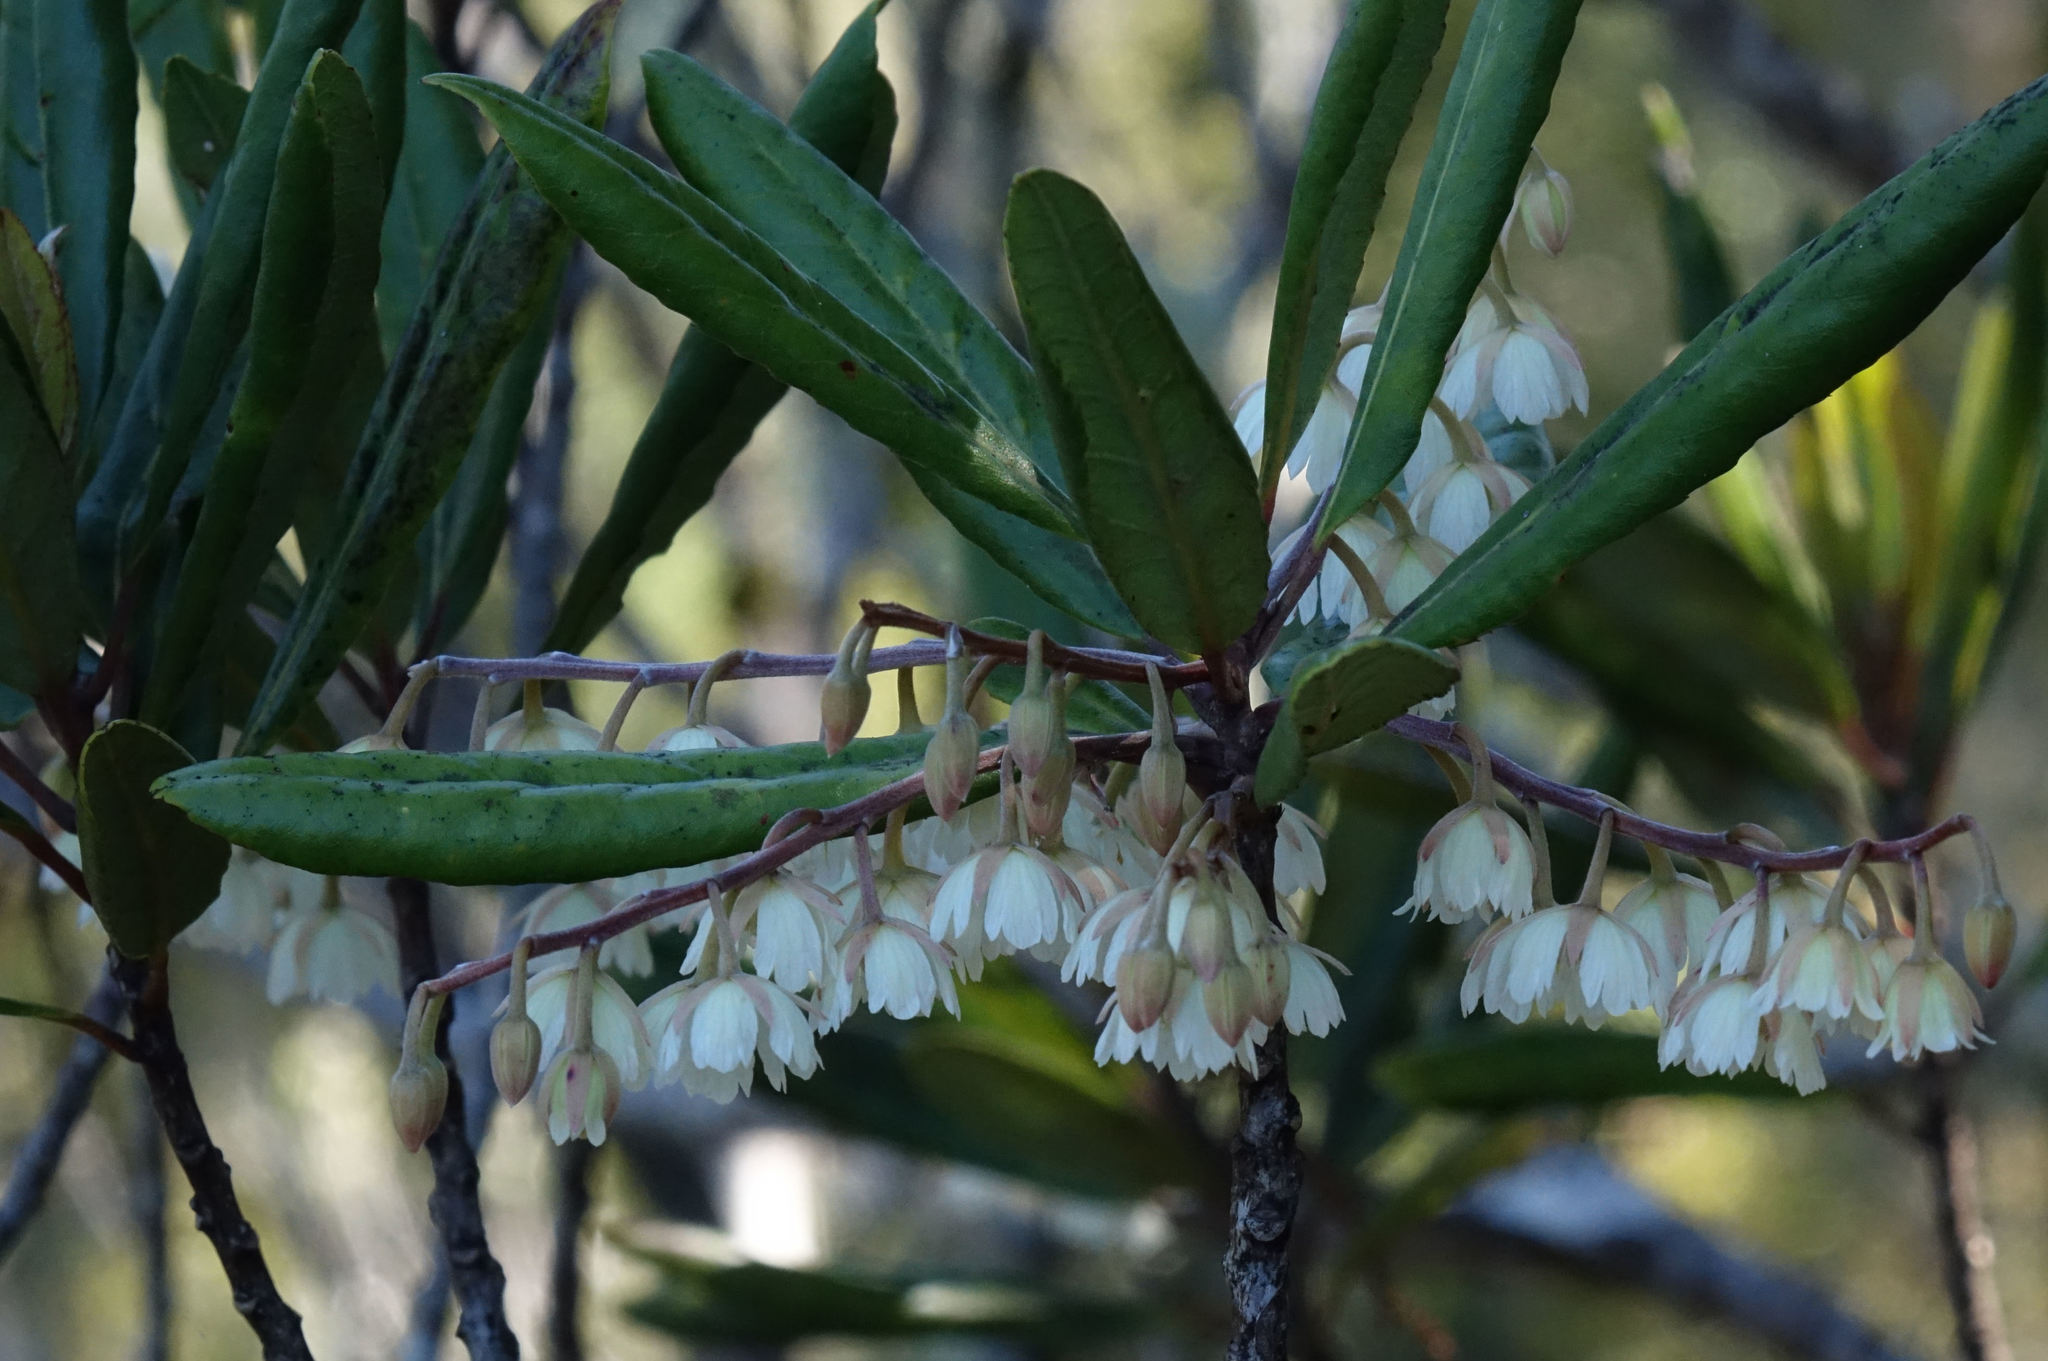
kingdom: Plantae
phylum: Tracheophyta
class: Magnoliopsida
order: Oxalidales
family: Elaeocarpaceae
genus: Elaeocarpus
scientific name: Elaeocarpus dentatus
